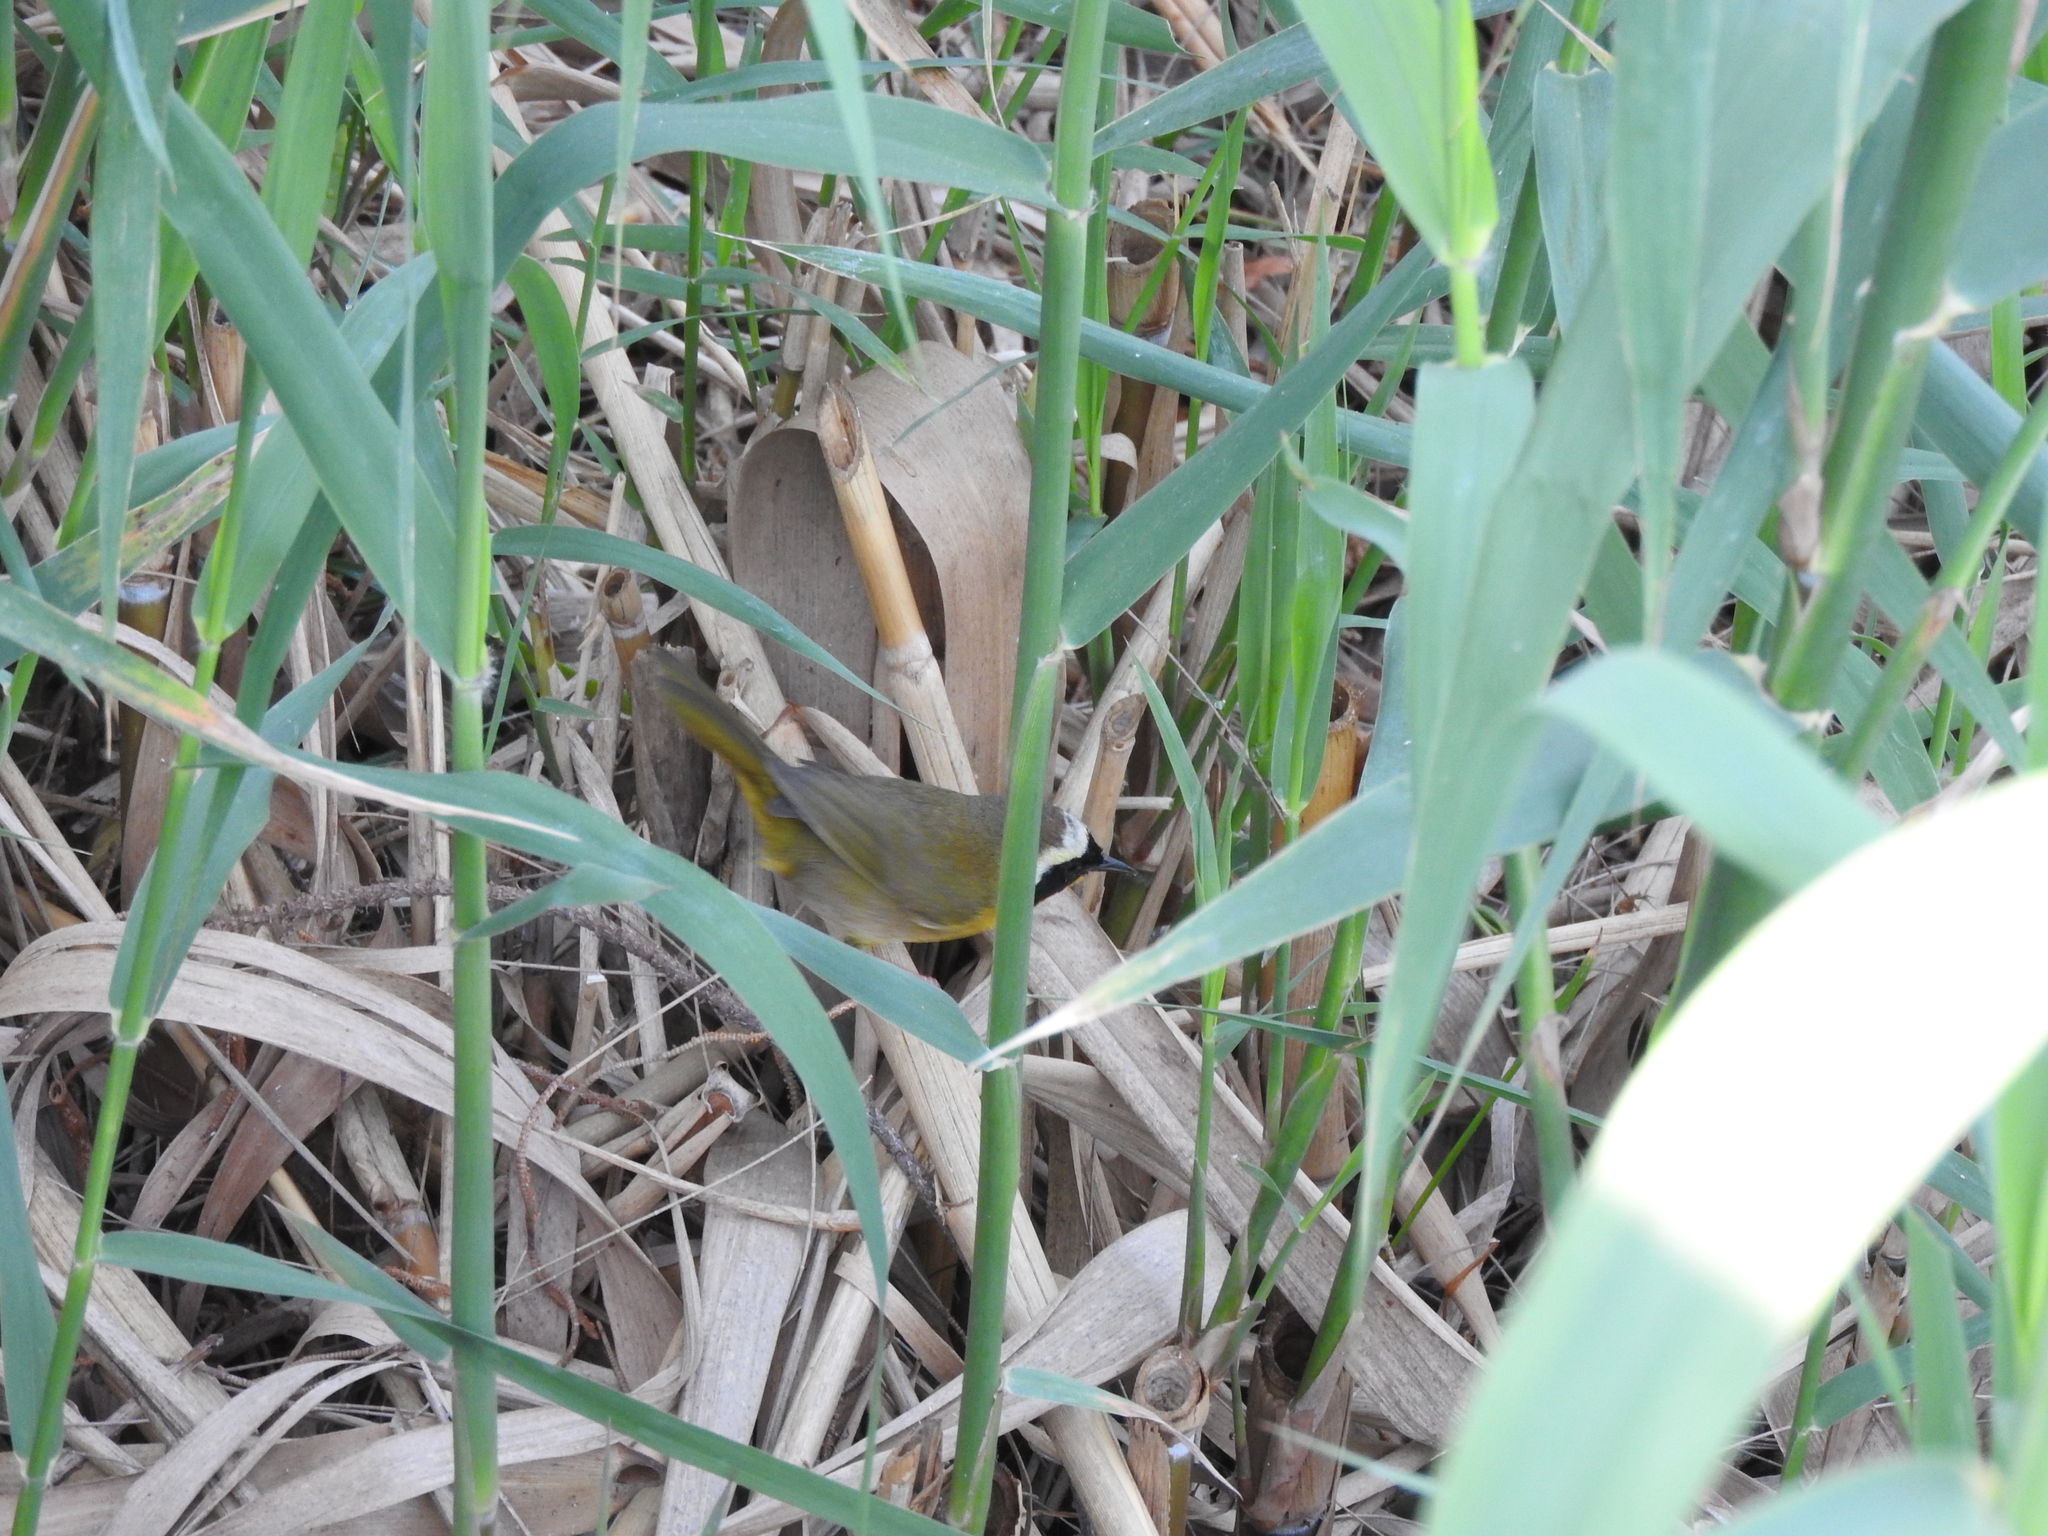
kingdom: Animalia
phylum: Chordata
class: Aves
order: Passeriformes
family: Parulidae
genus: Geothlypis
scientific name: Geothlypis trichas
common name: Common yellowthroat
